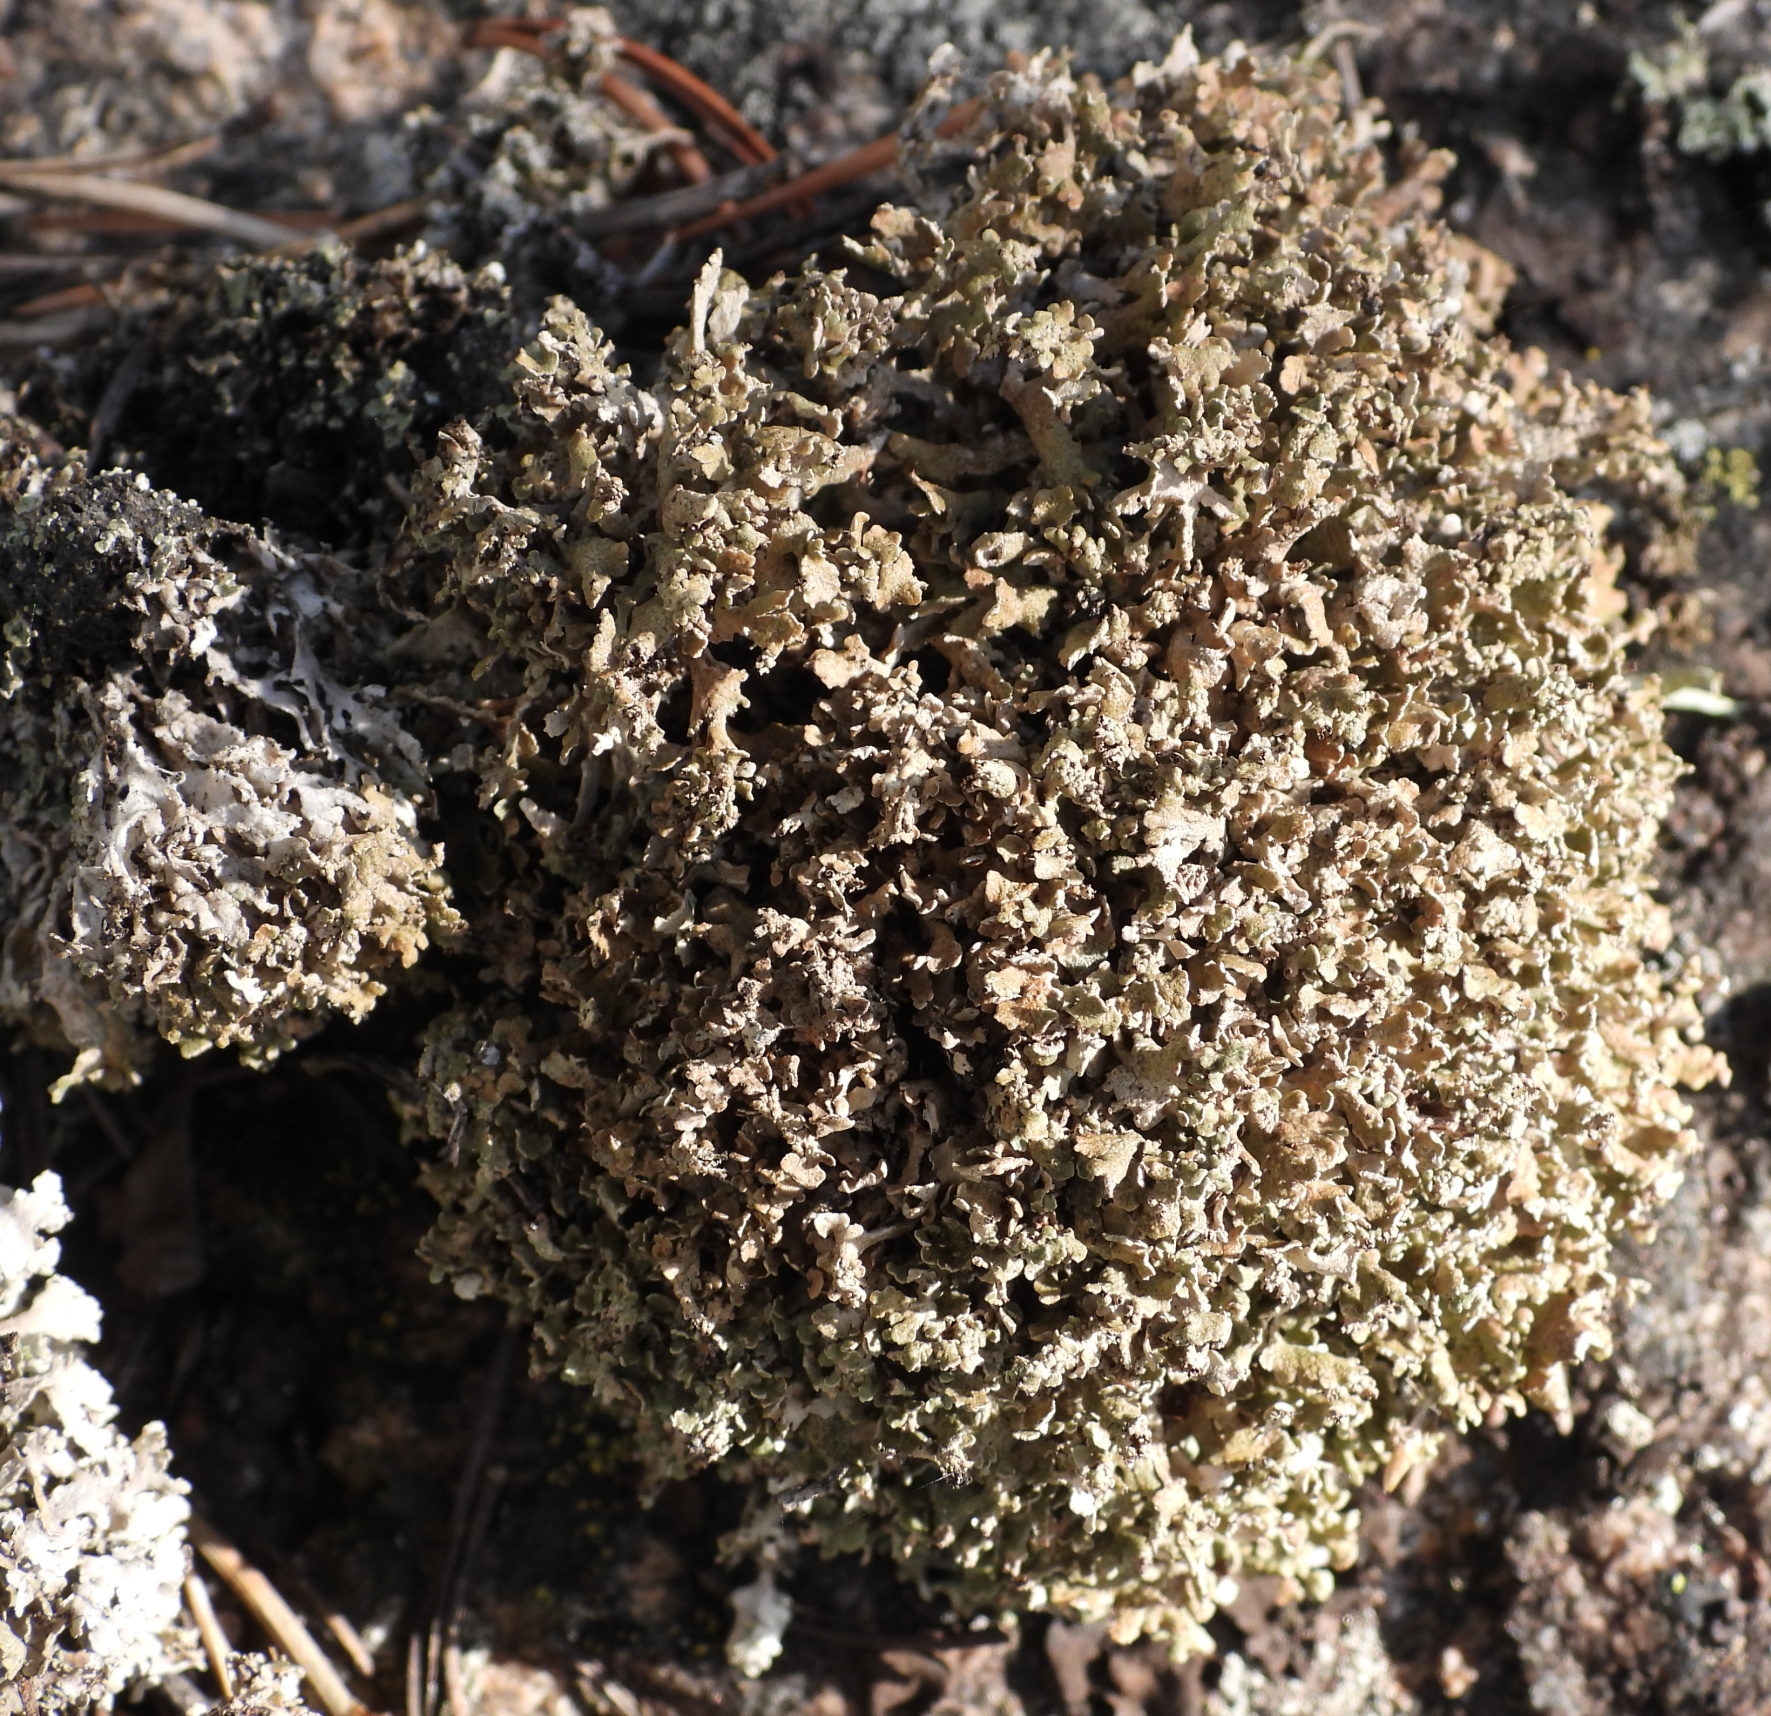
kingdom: Fungi
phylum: Ascomycota
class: Lecanoromycetes
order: Lecanorales
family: Cladoniaceae
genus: Cladonia
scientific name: Cladonia strepsilis
